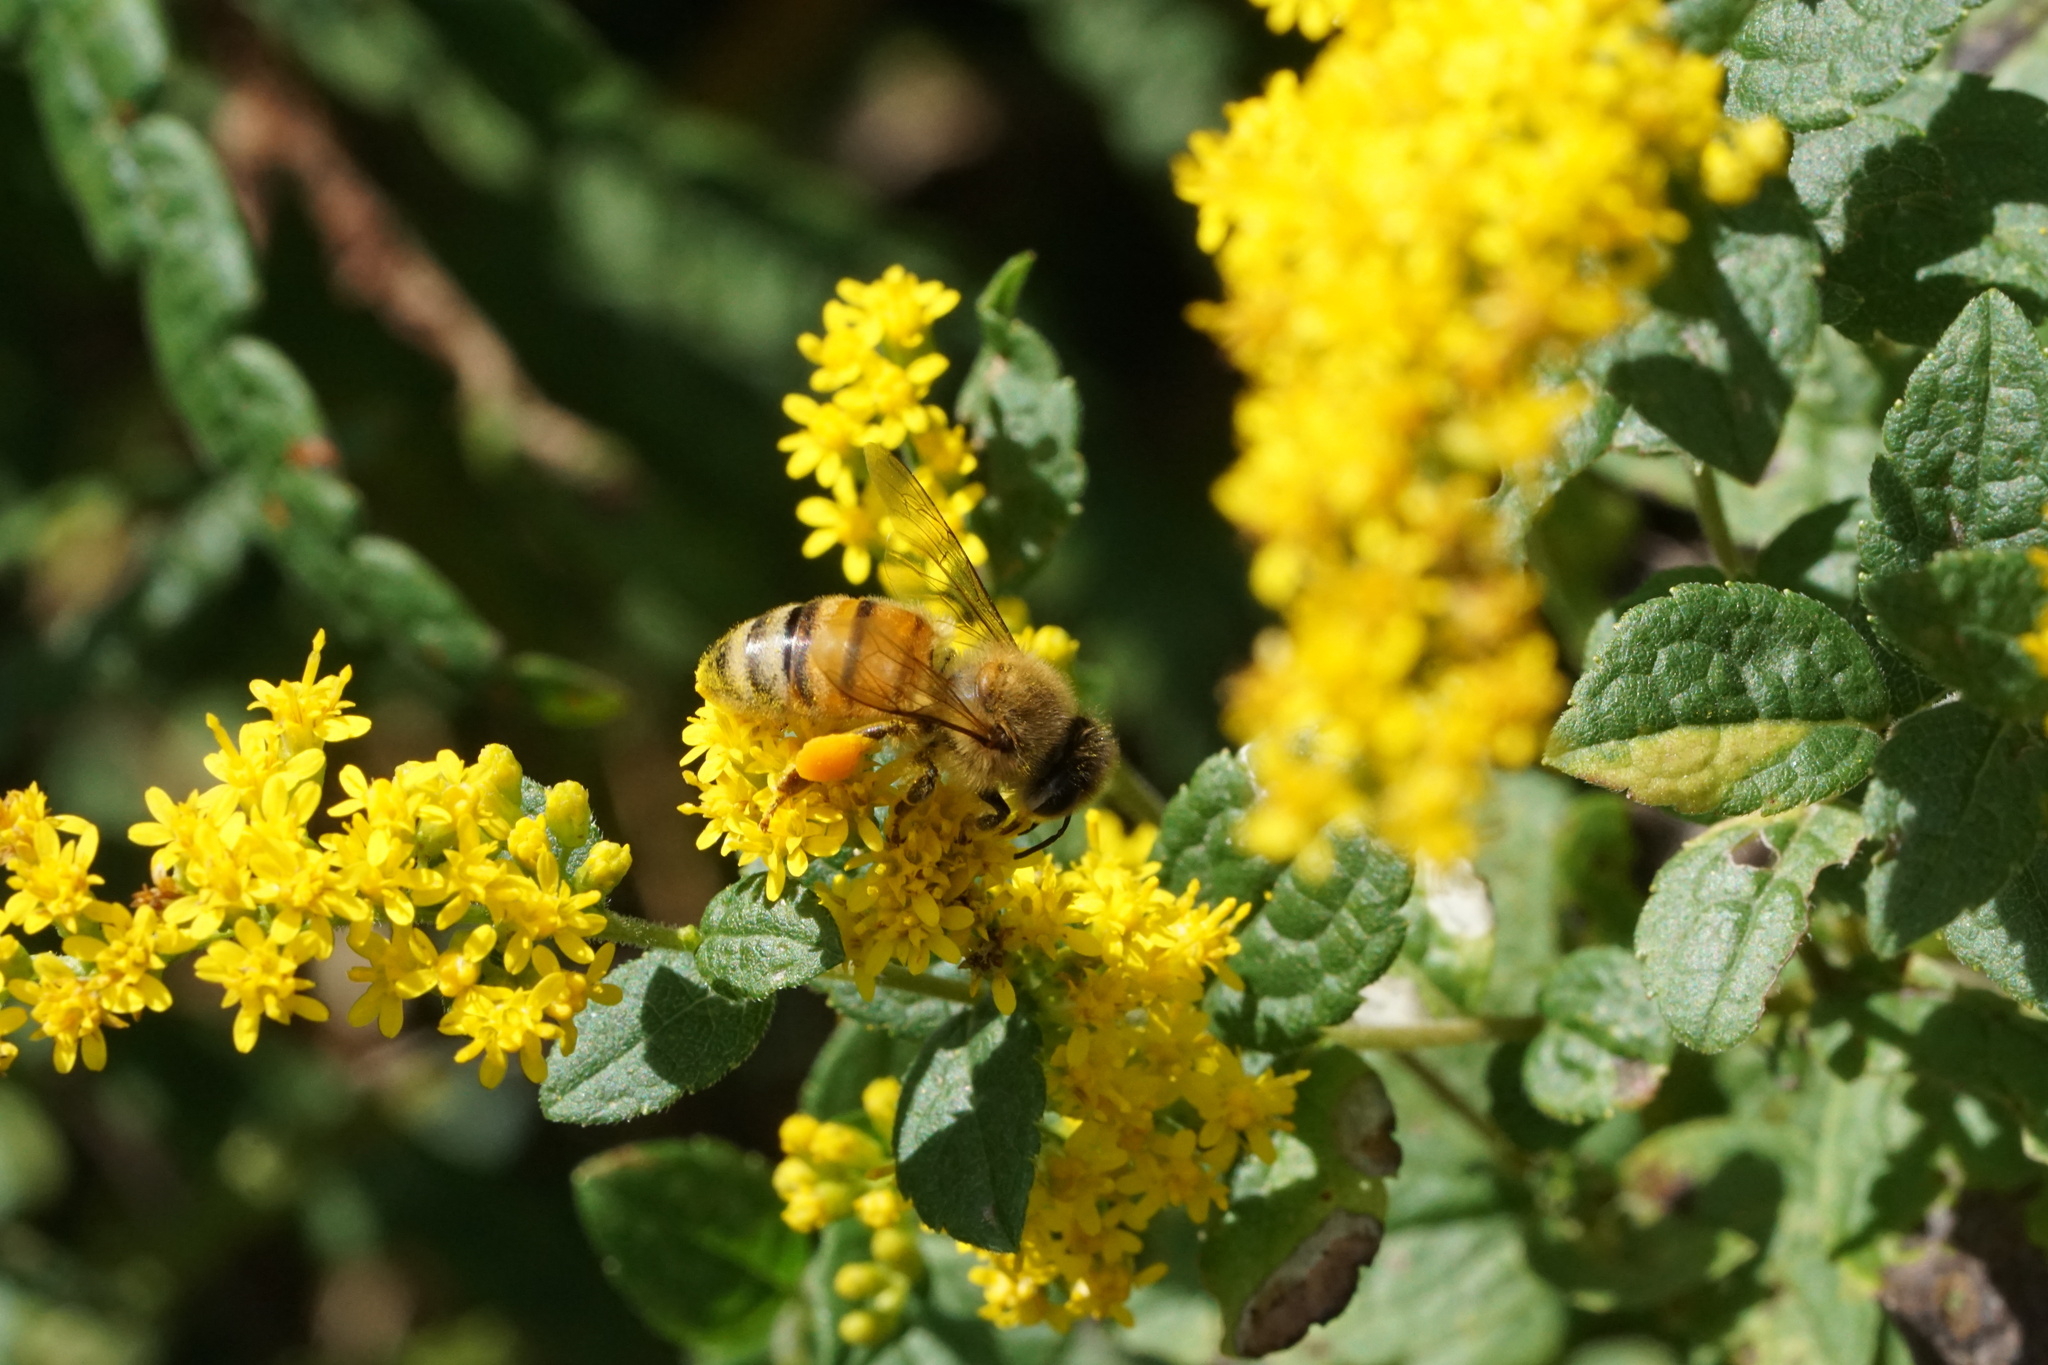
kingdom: Animalia
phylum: Arthropoda
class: Insecta
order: Hymenoptera
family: Apidae
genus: Apis
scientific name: Apis mellifera
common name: Honey bee
